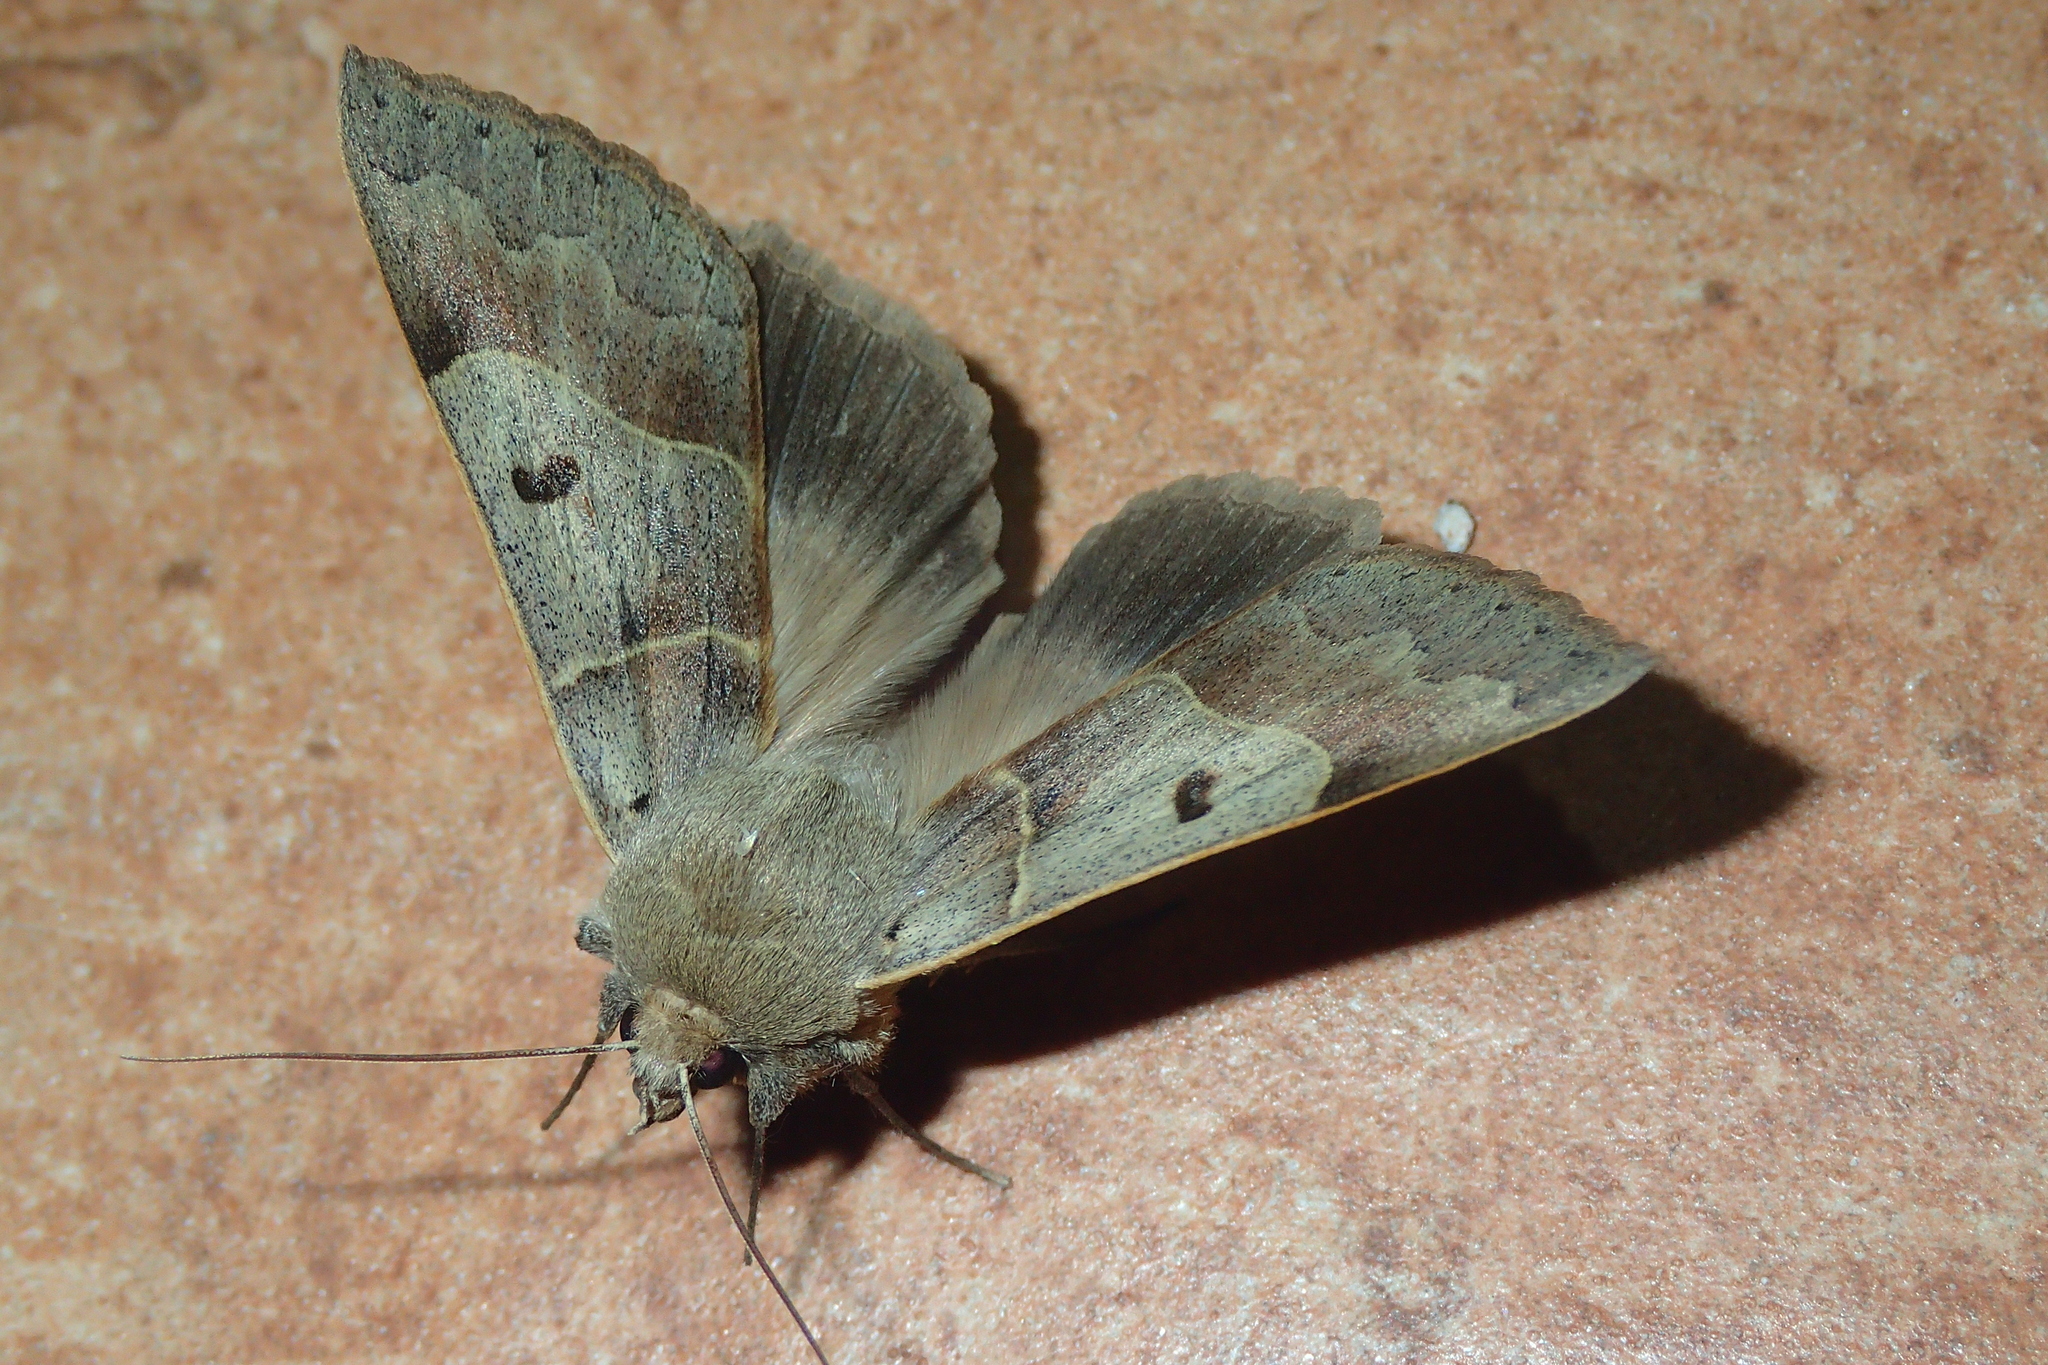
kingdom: Animalia
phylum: Arthropoda
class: Insecta
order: Lepidoptera
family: Erebidae
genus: Minucia
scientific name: Minucia lunaris
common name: Lunar double-stripe
